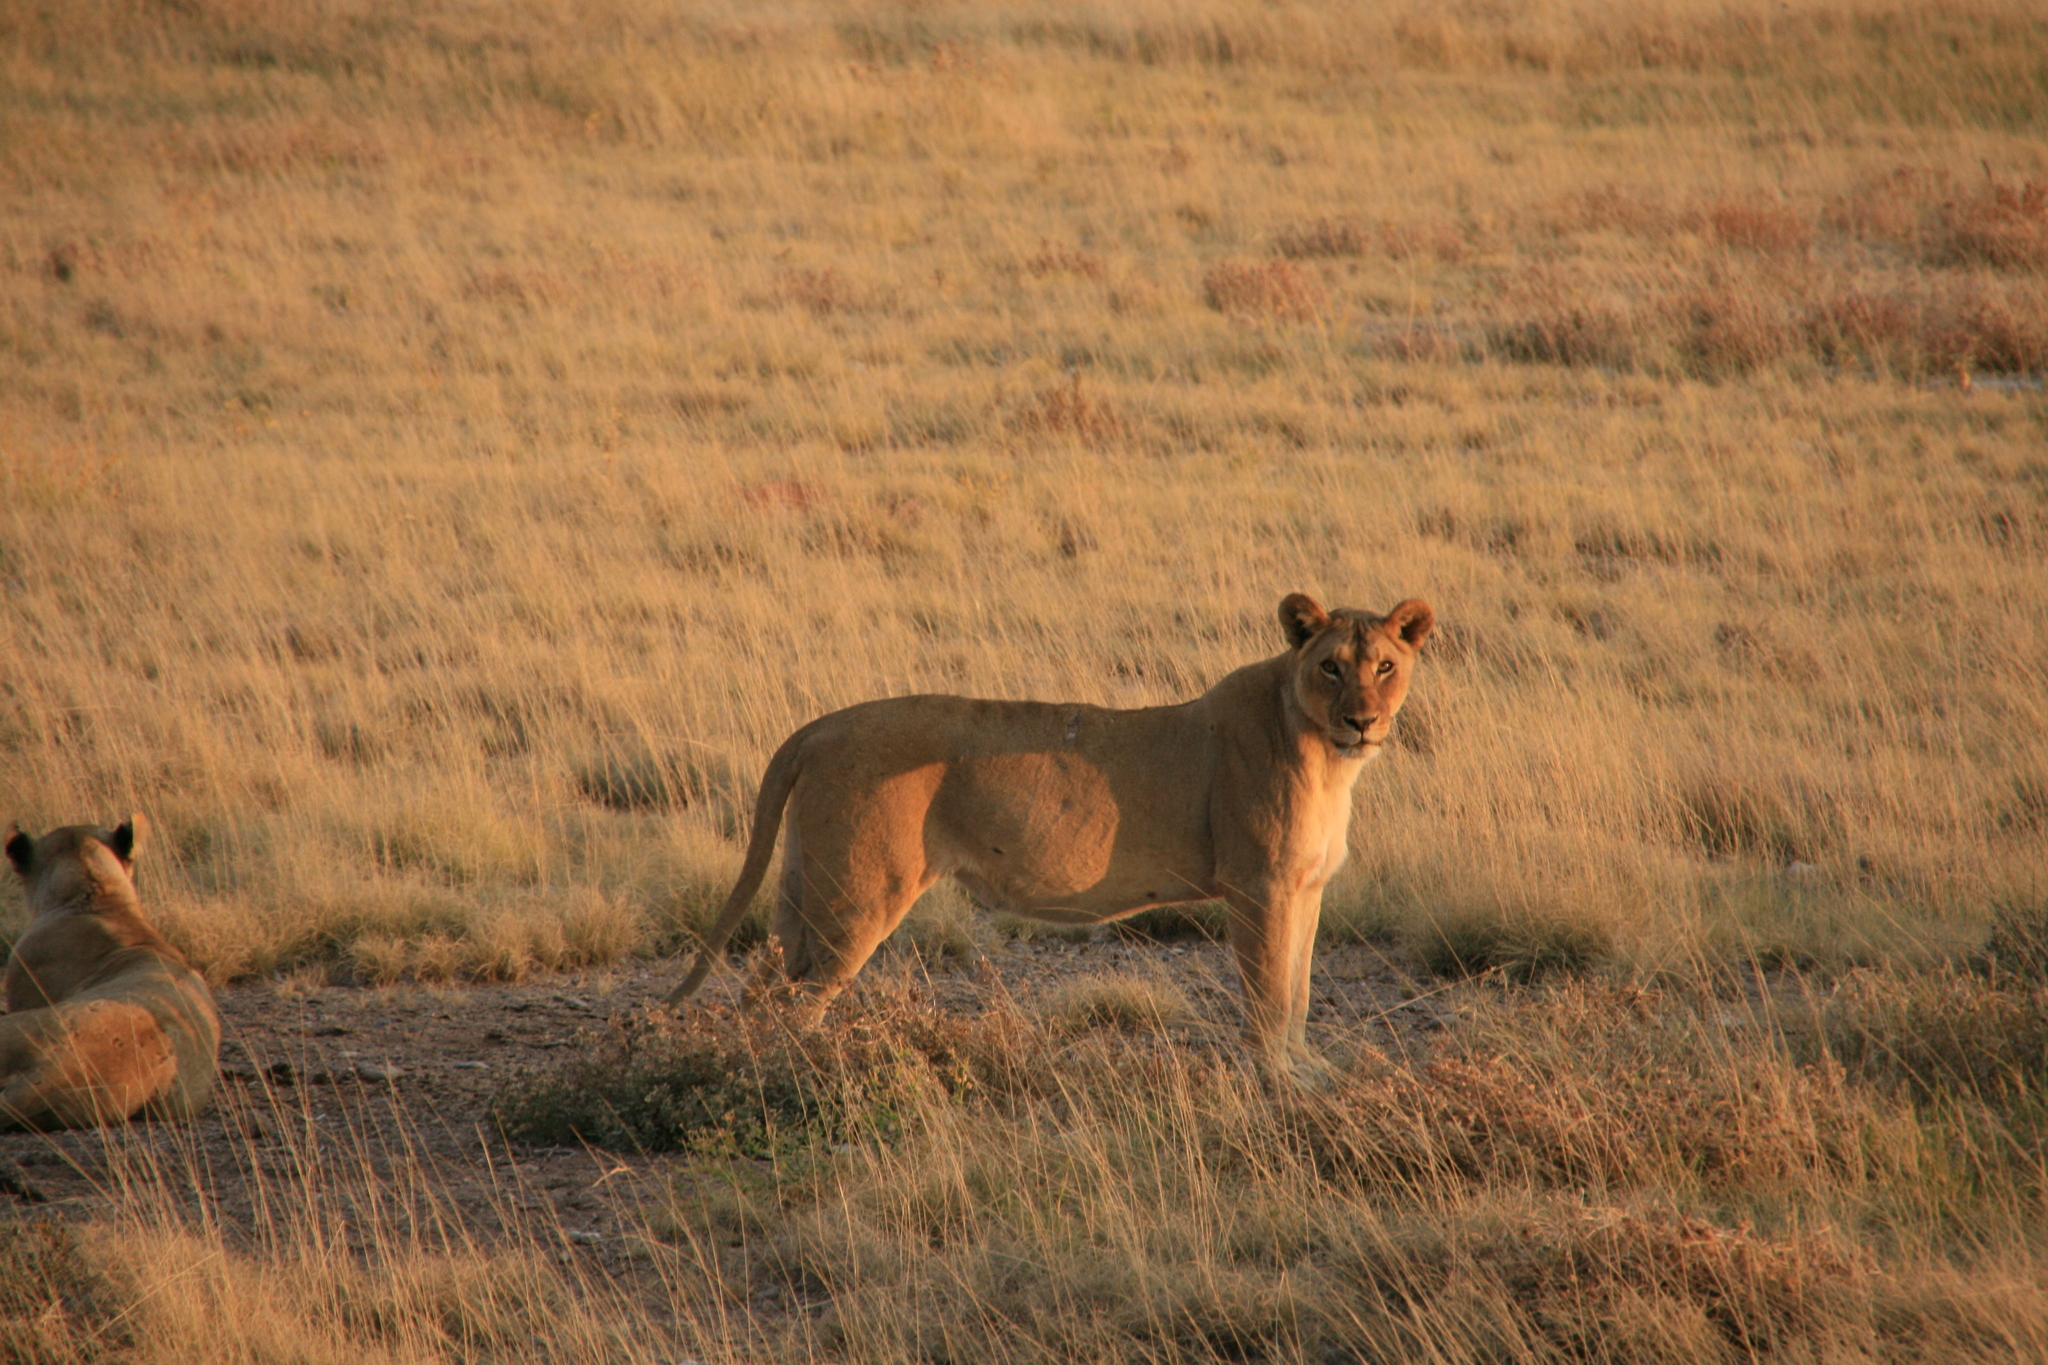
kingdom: Animalia
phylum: Chordata
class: Mammalia
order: Carnivora
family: Felidae
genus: Panthera
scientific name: Panthera leo
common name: Lion
